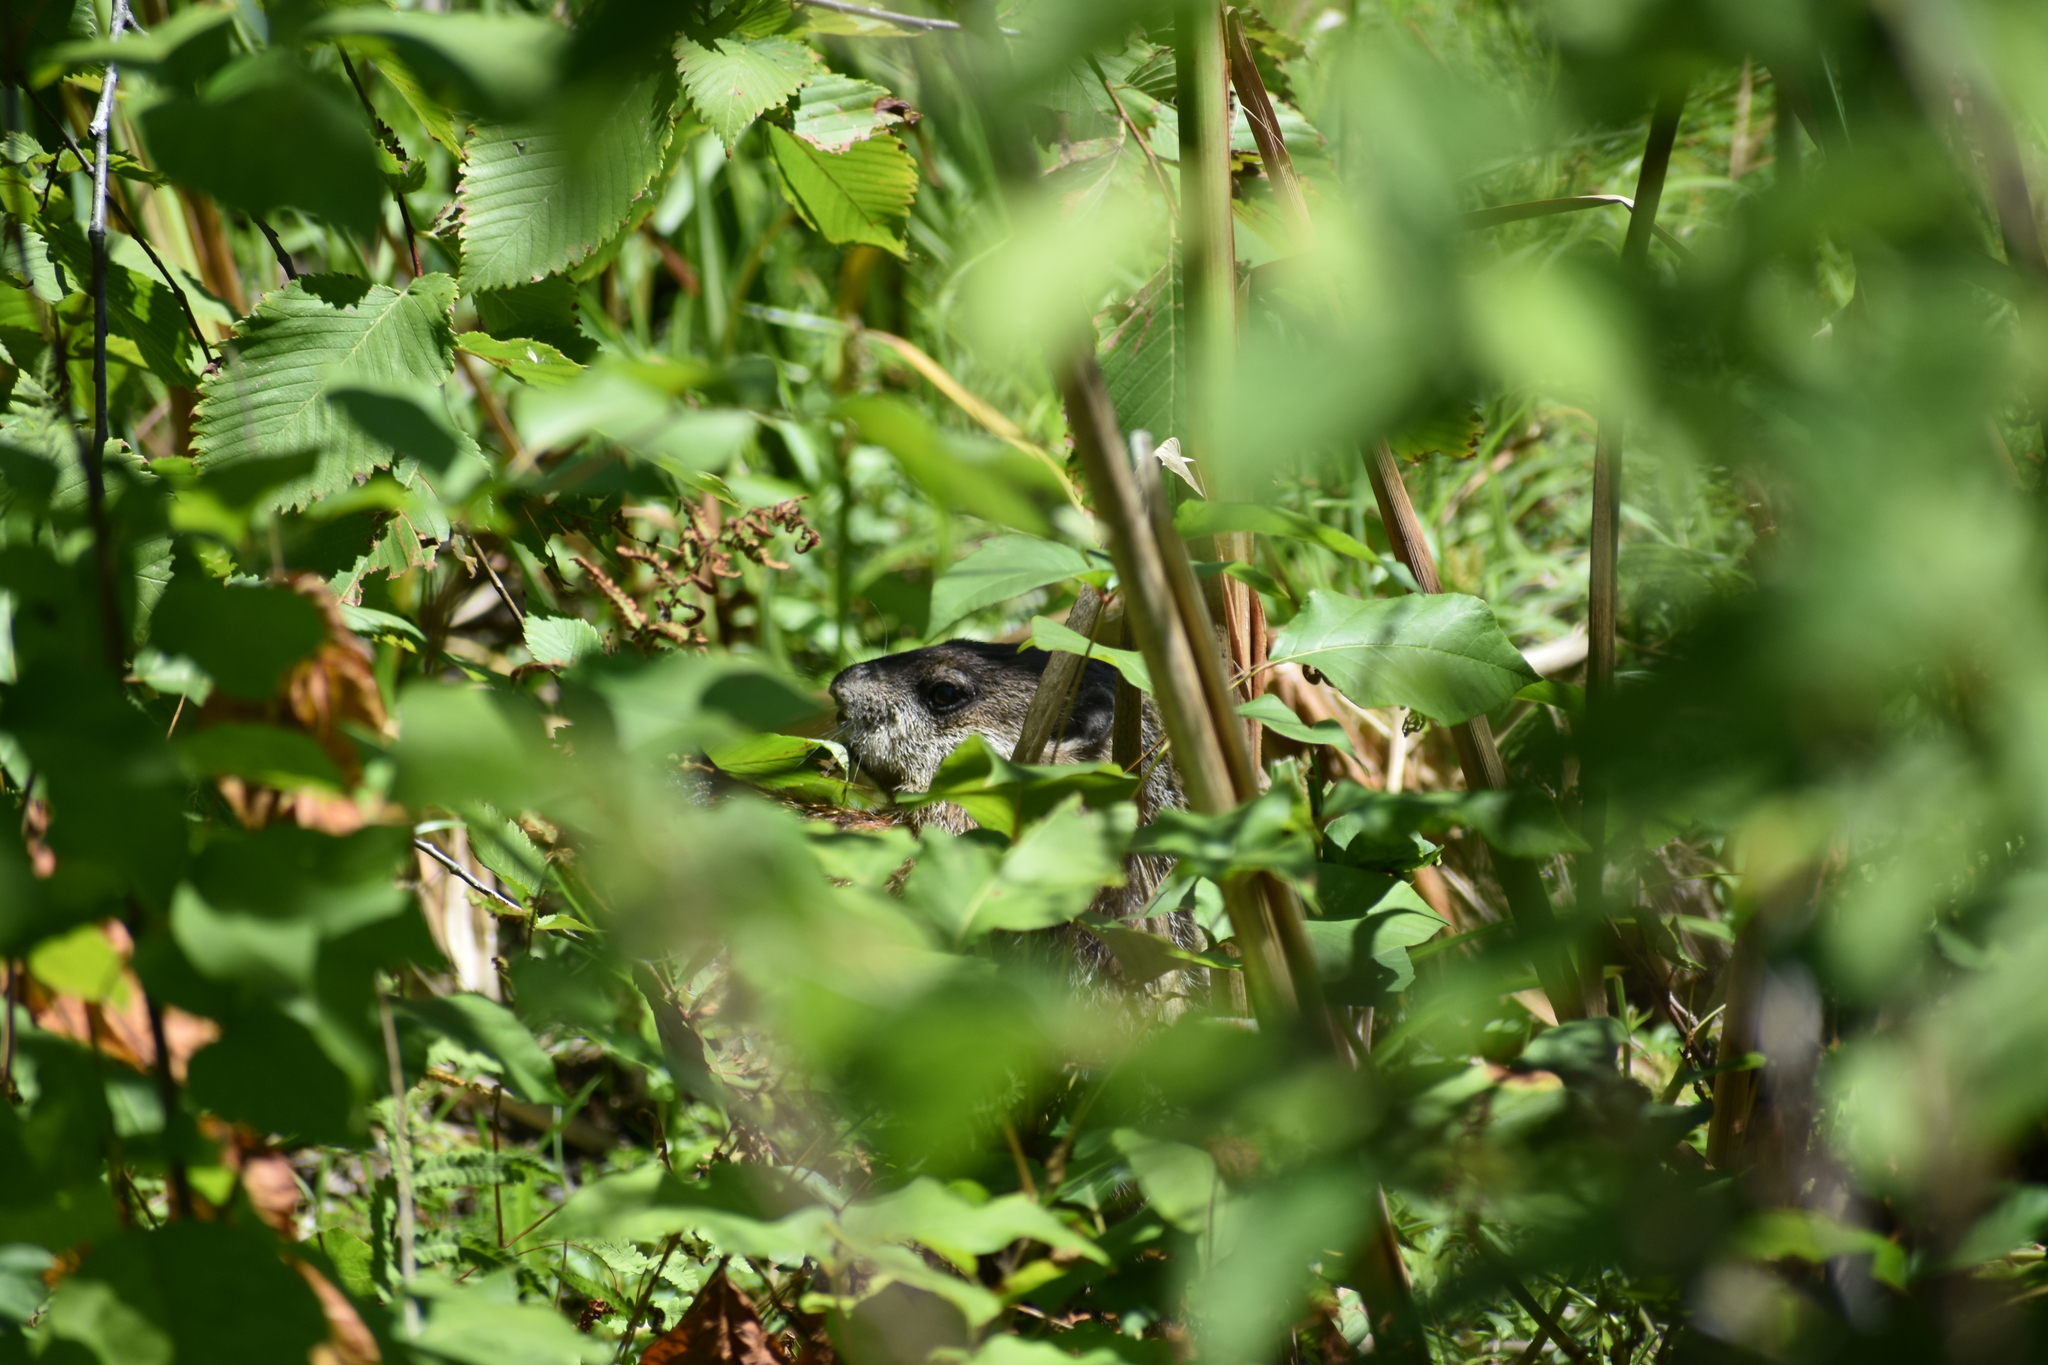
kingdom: Animalia
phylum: Chordata
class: Mammalia
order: Rodentia
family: Sciuridae
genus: Marmota
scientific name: Marmota monax
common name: Groundhog
